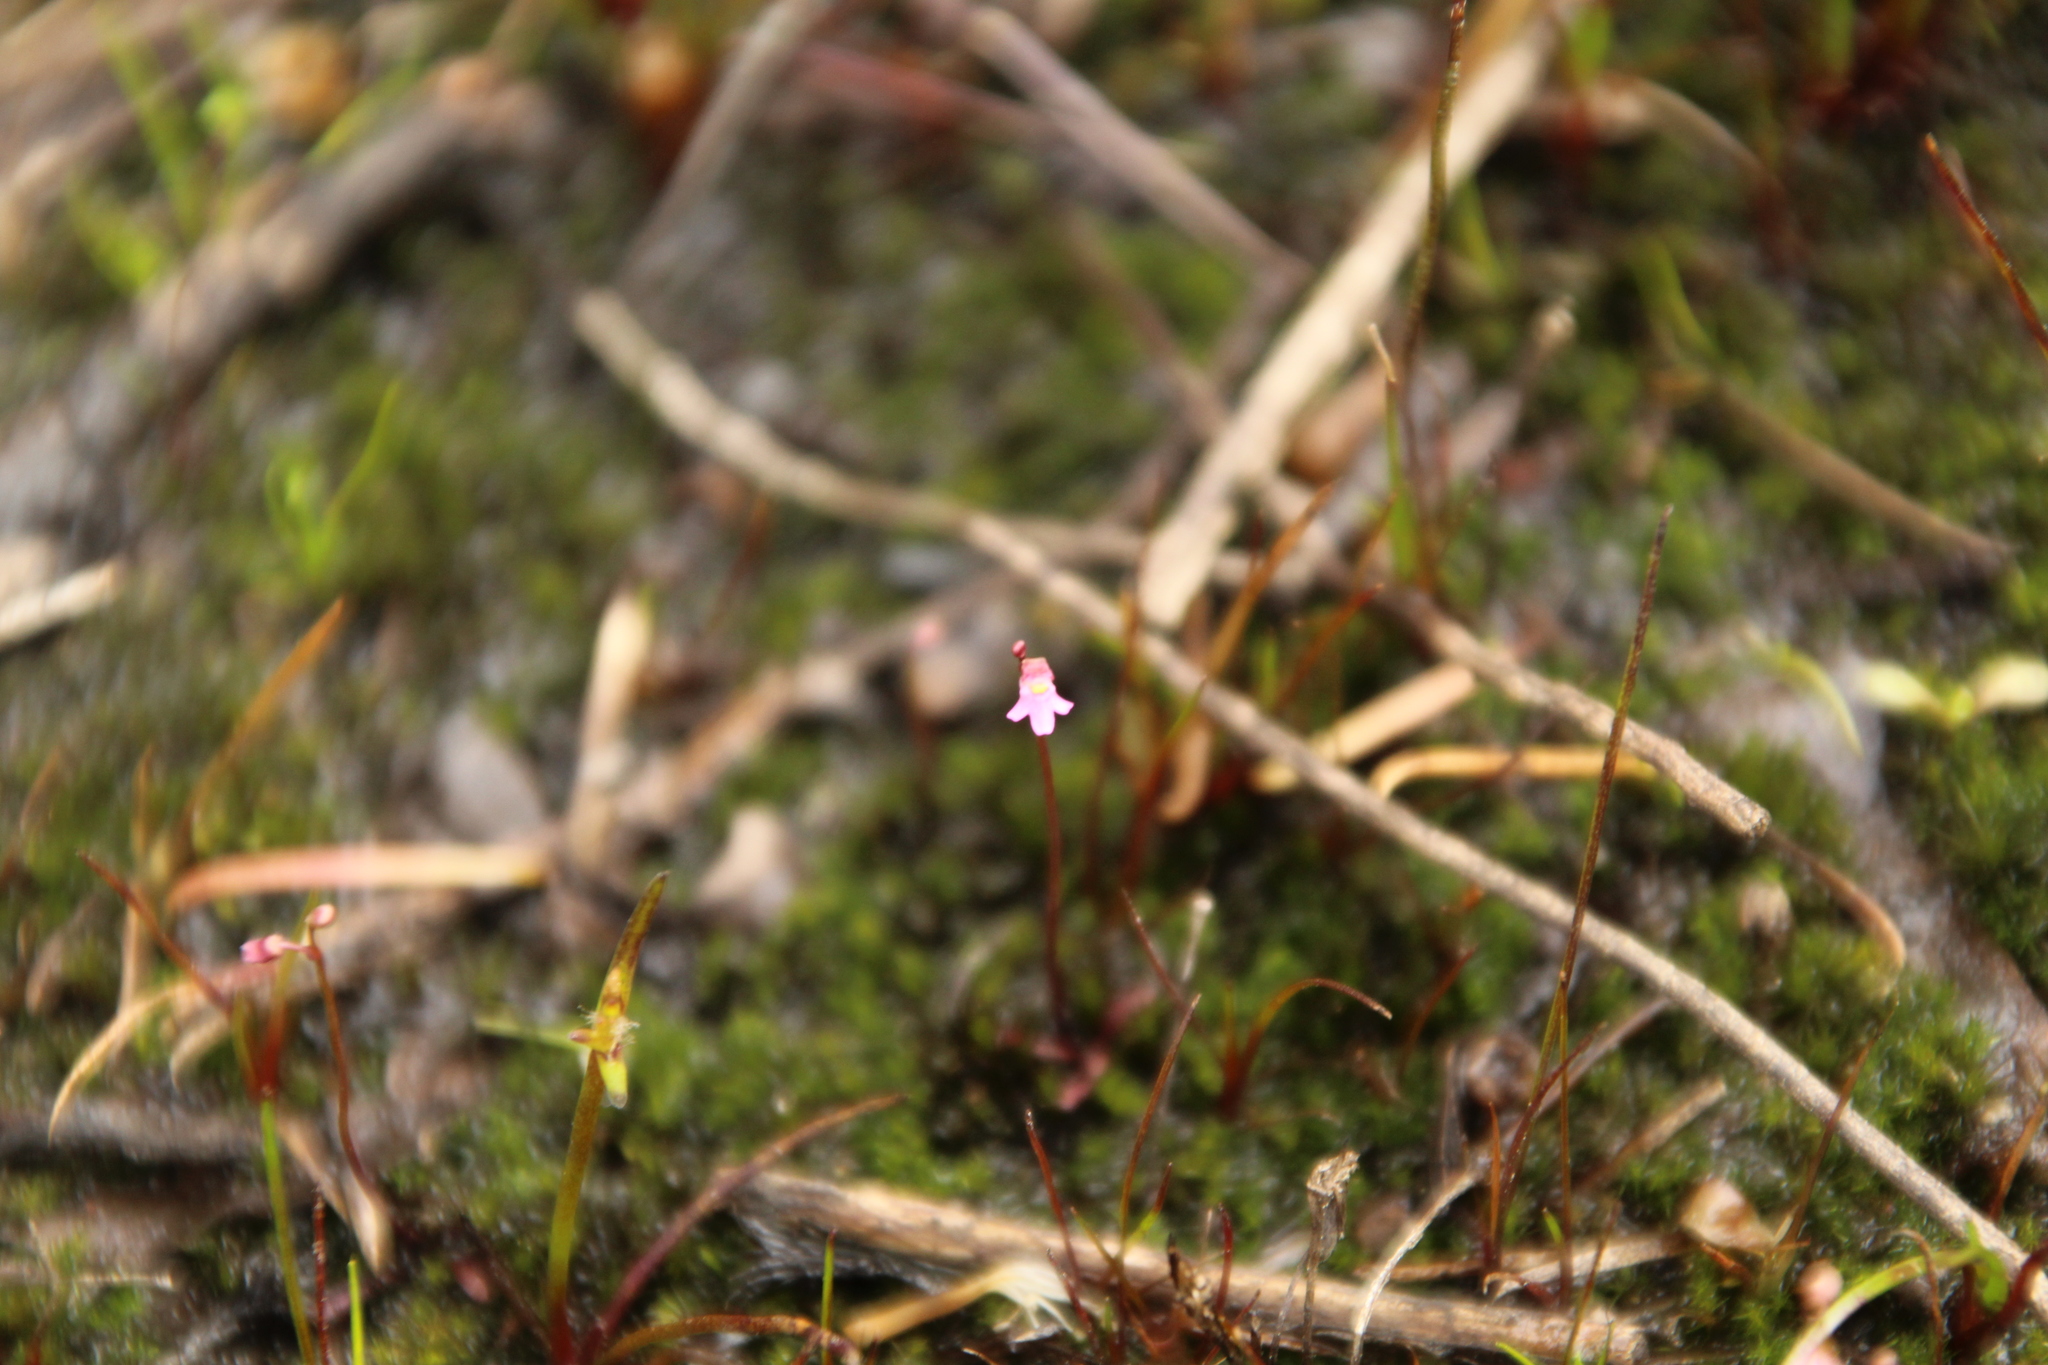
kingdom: Plantae
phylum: Tracheophyta
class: Magnoliopsida
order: Lamiales
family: Lentibulariaceae
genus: Utricularia
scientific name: Utricularia tenella
